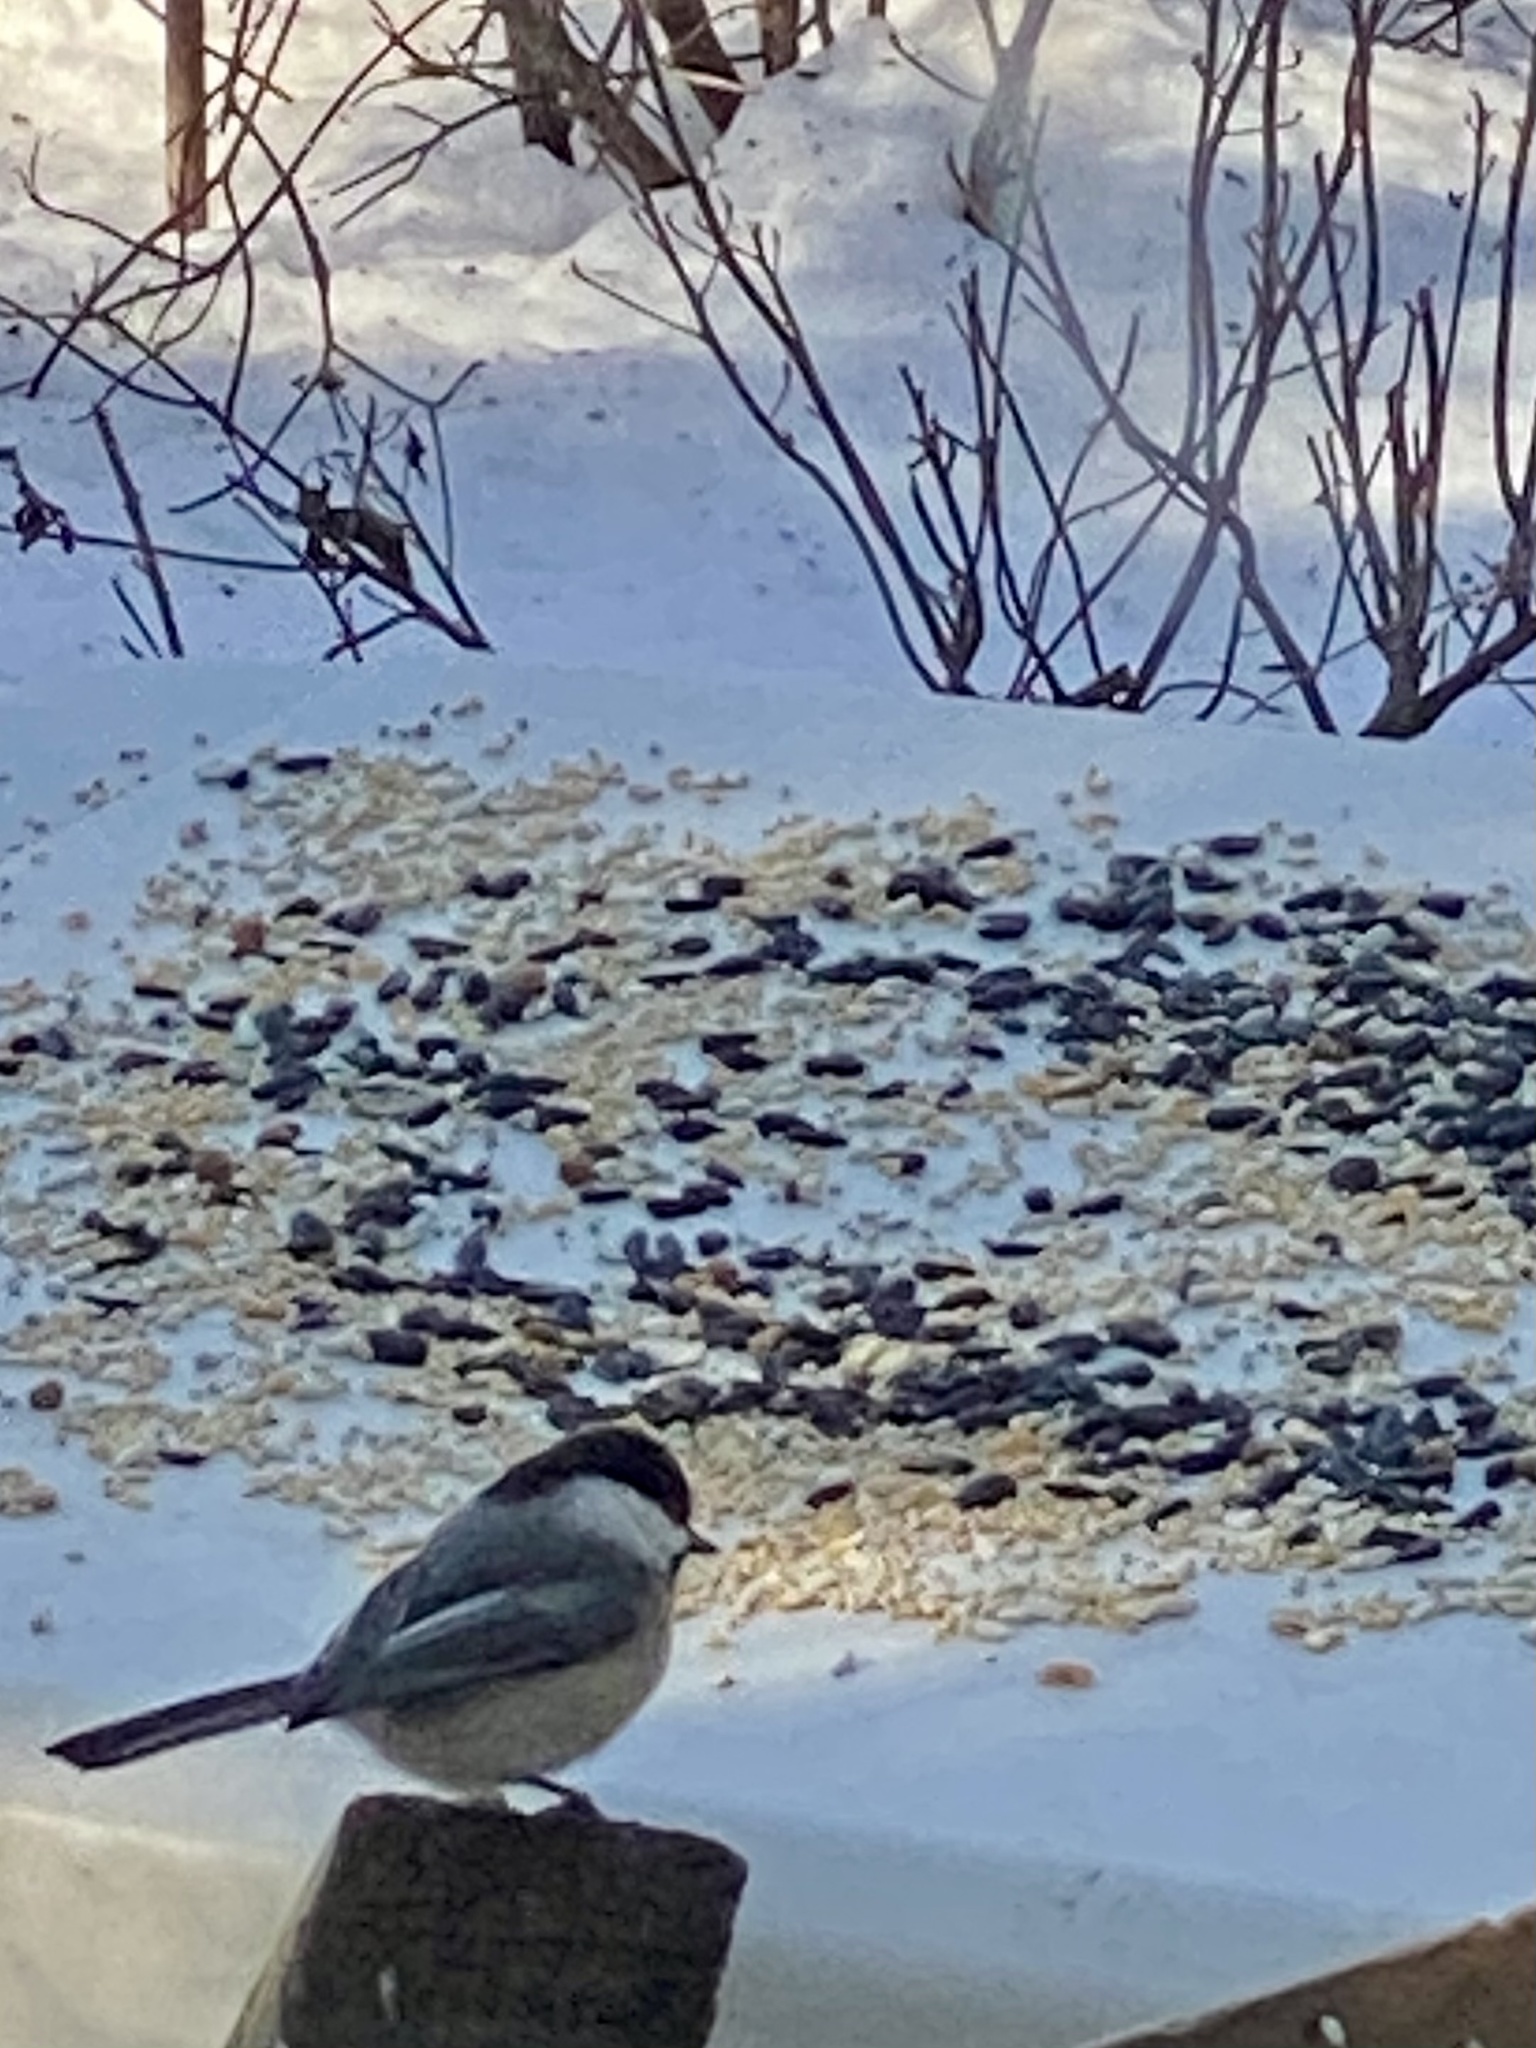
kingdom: Animalia
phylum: Chordata
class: Aves
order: Passeriformes
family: Paridae
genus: Poecile
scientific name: Poecile atricapillus
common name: Black-capped chickadee
